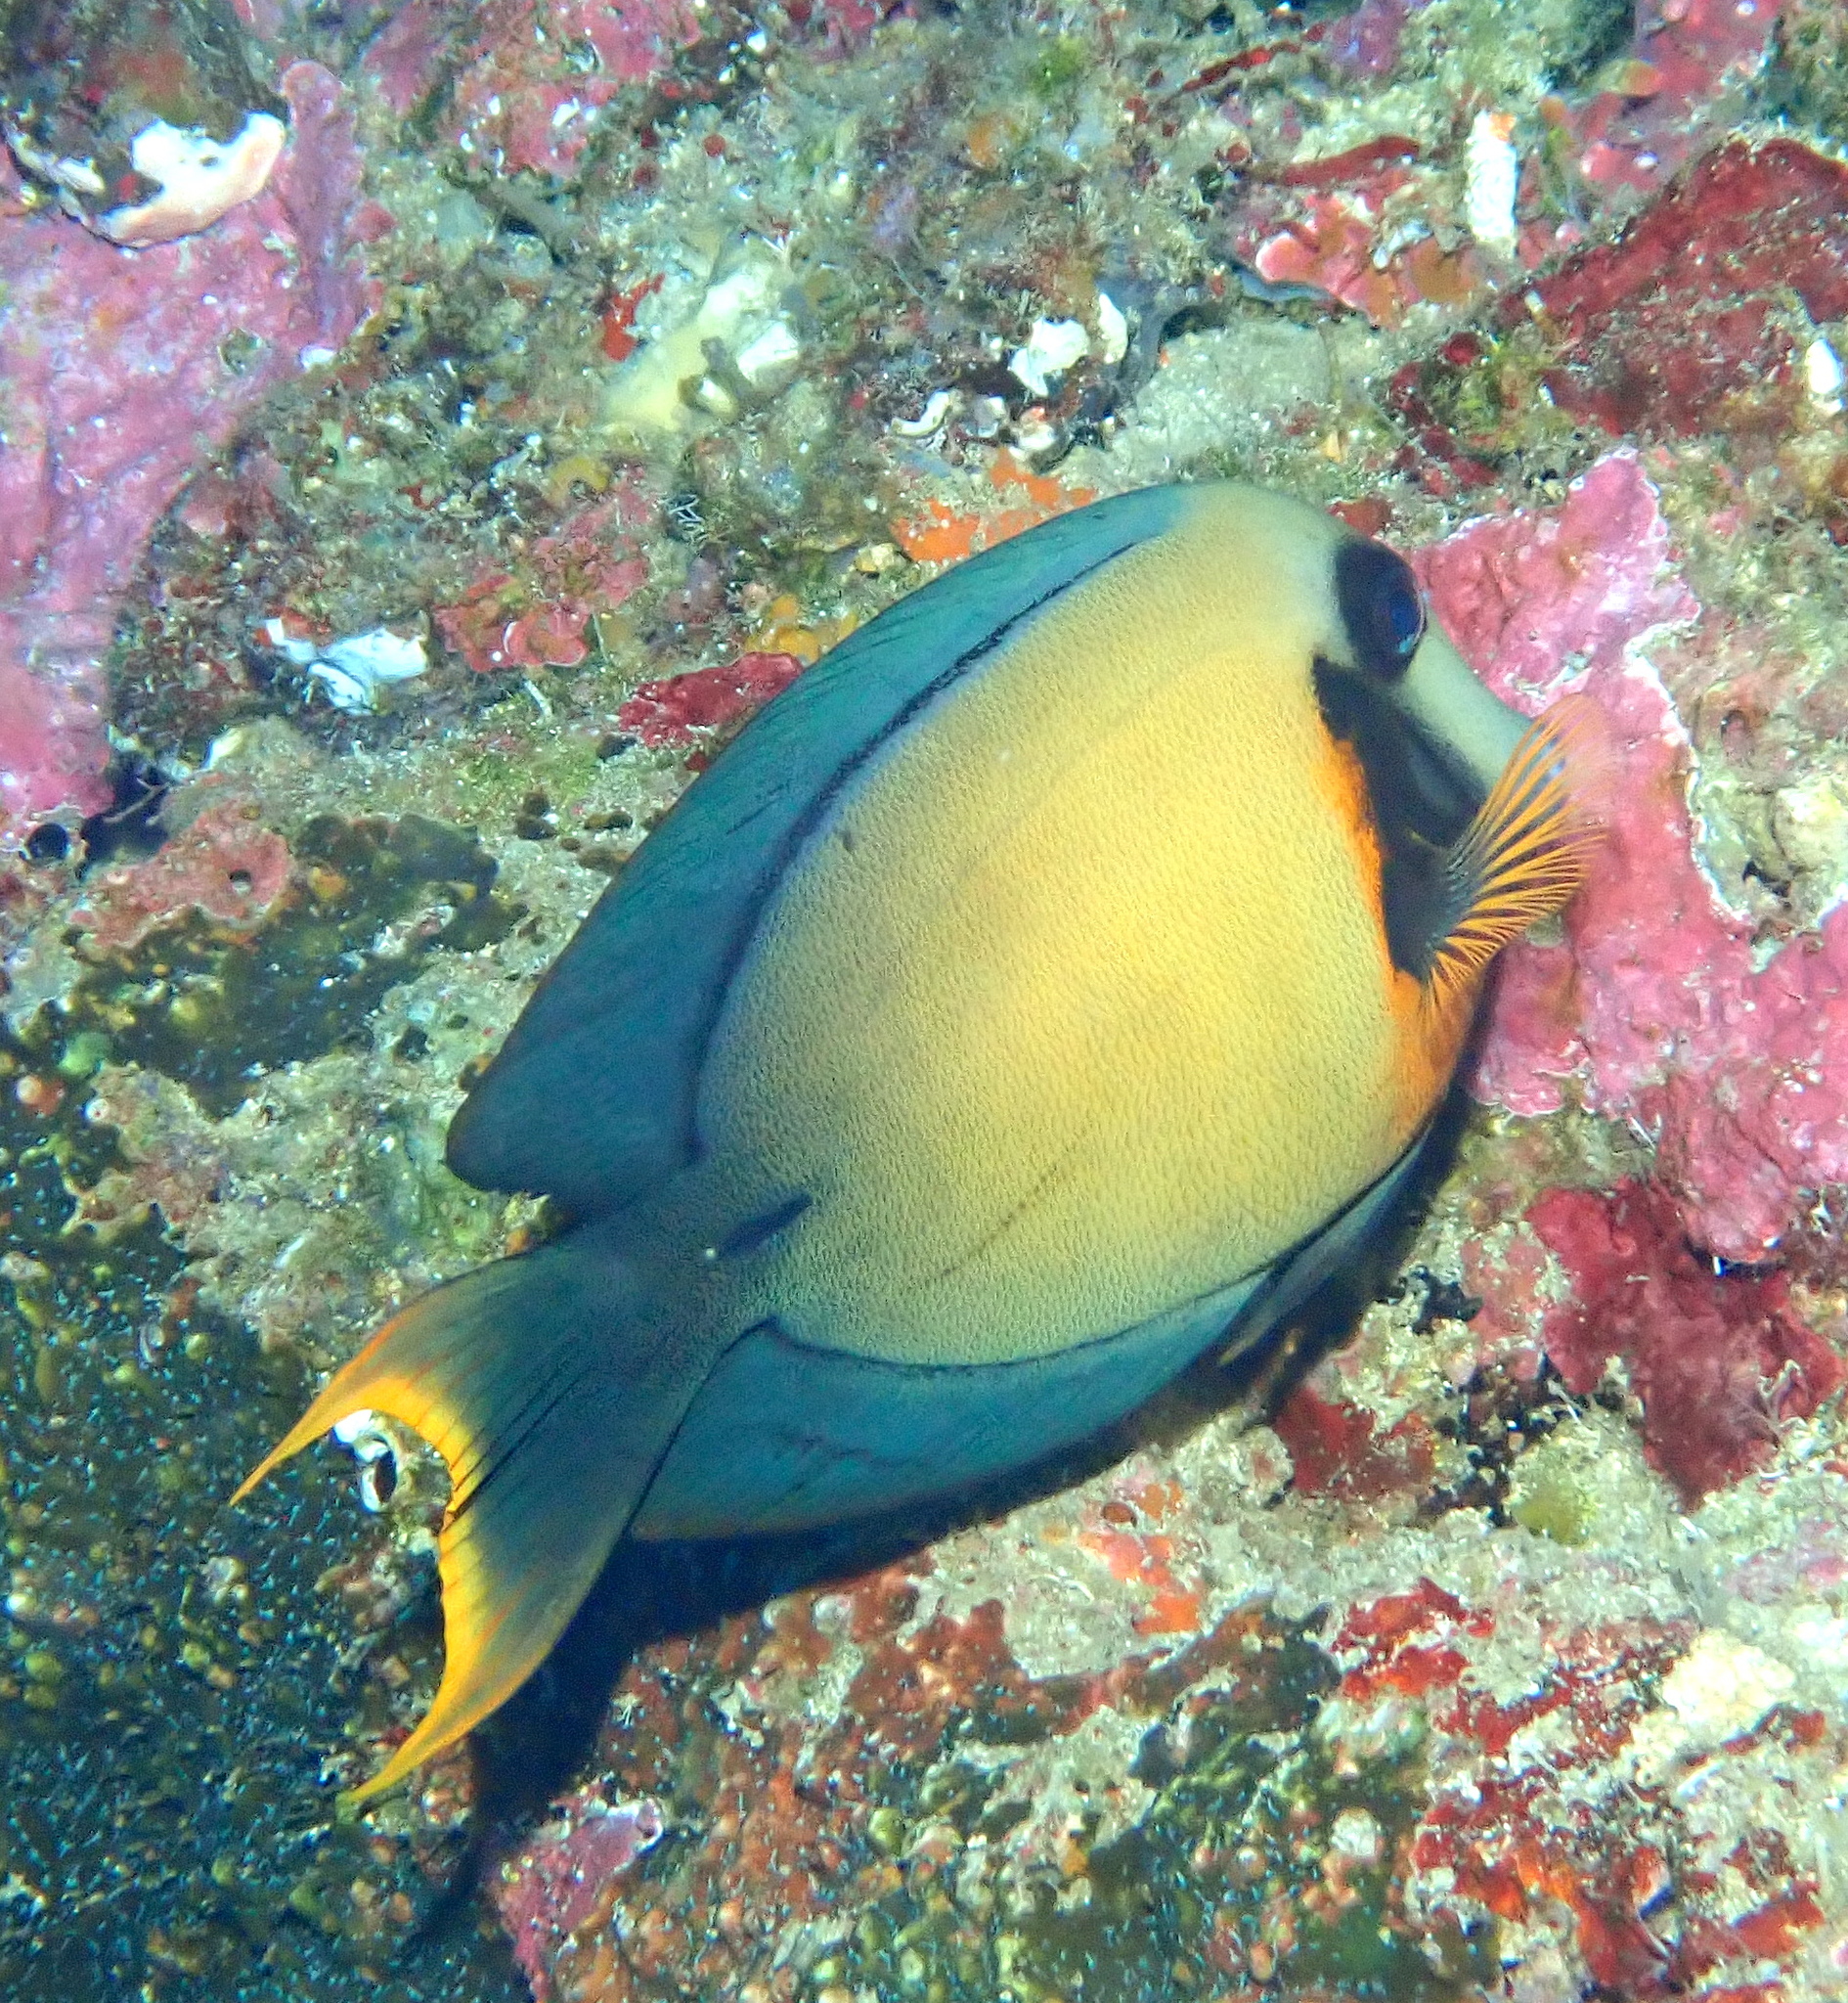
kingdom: Animalia
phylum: Chordata
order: Perciformes
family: Acanthuridae
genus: Acanthurus
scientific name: Acanthurus pyroferus
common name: Chocolate surgeonfish
